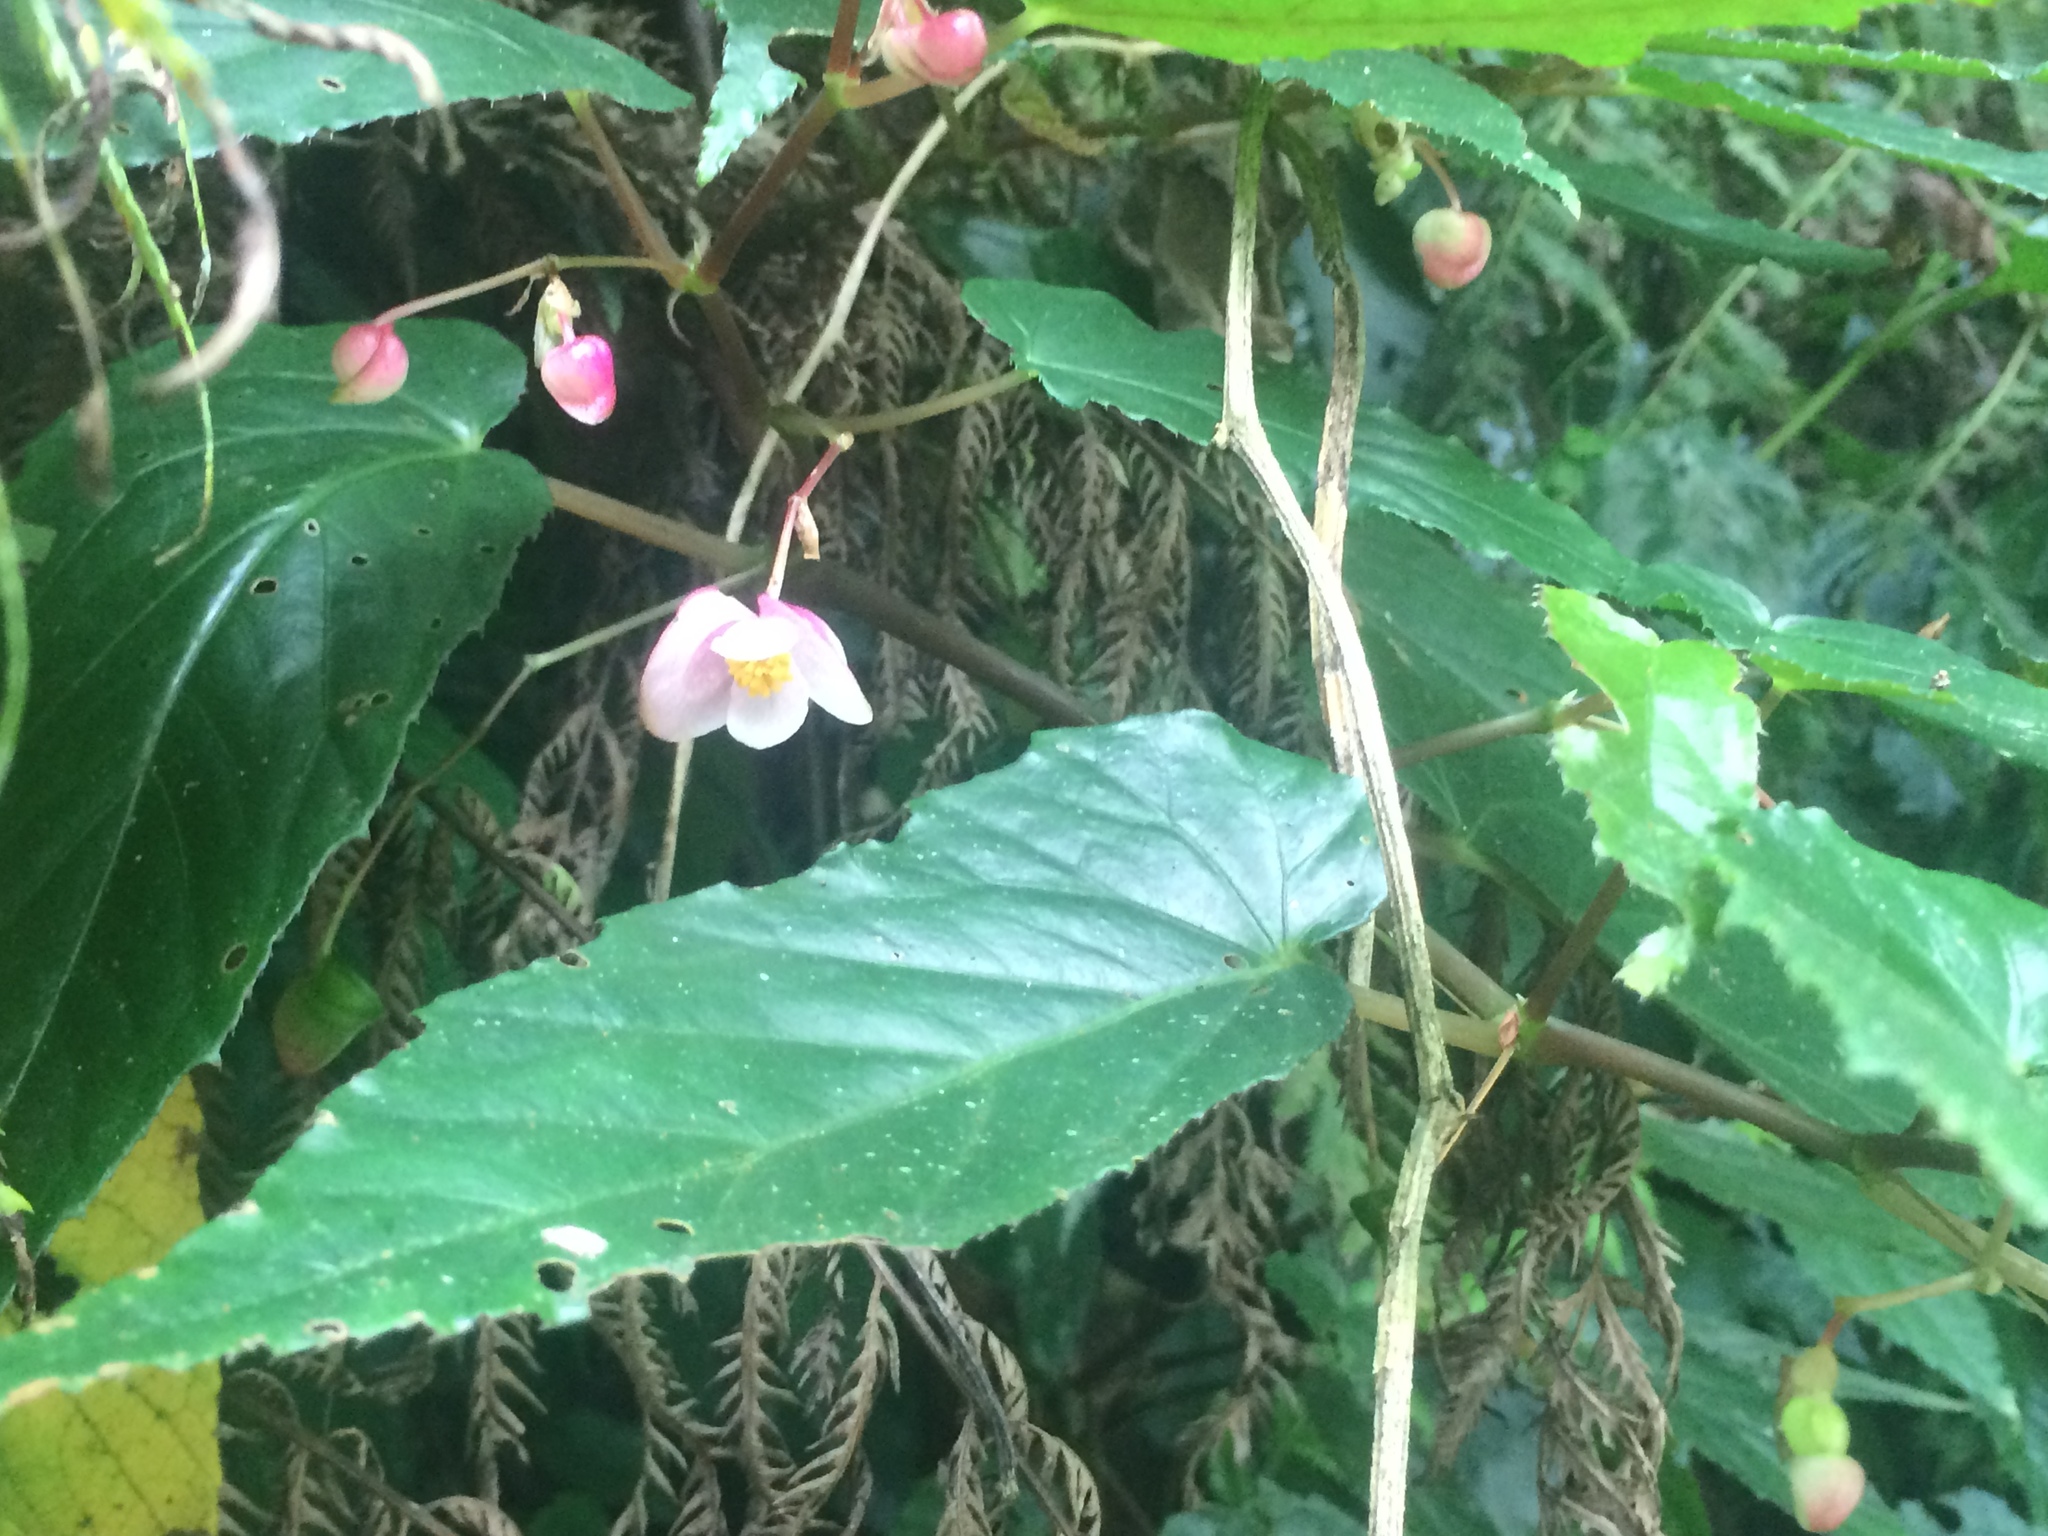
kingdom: Plantae
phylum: Tracheophyta
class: Magnoliopsida
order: Cucurbitales
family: Begoniaceae
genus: Begonia
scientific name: Begonia taiwaniana
